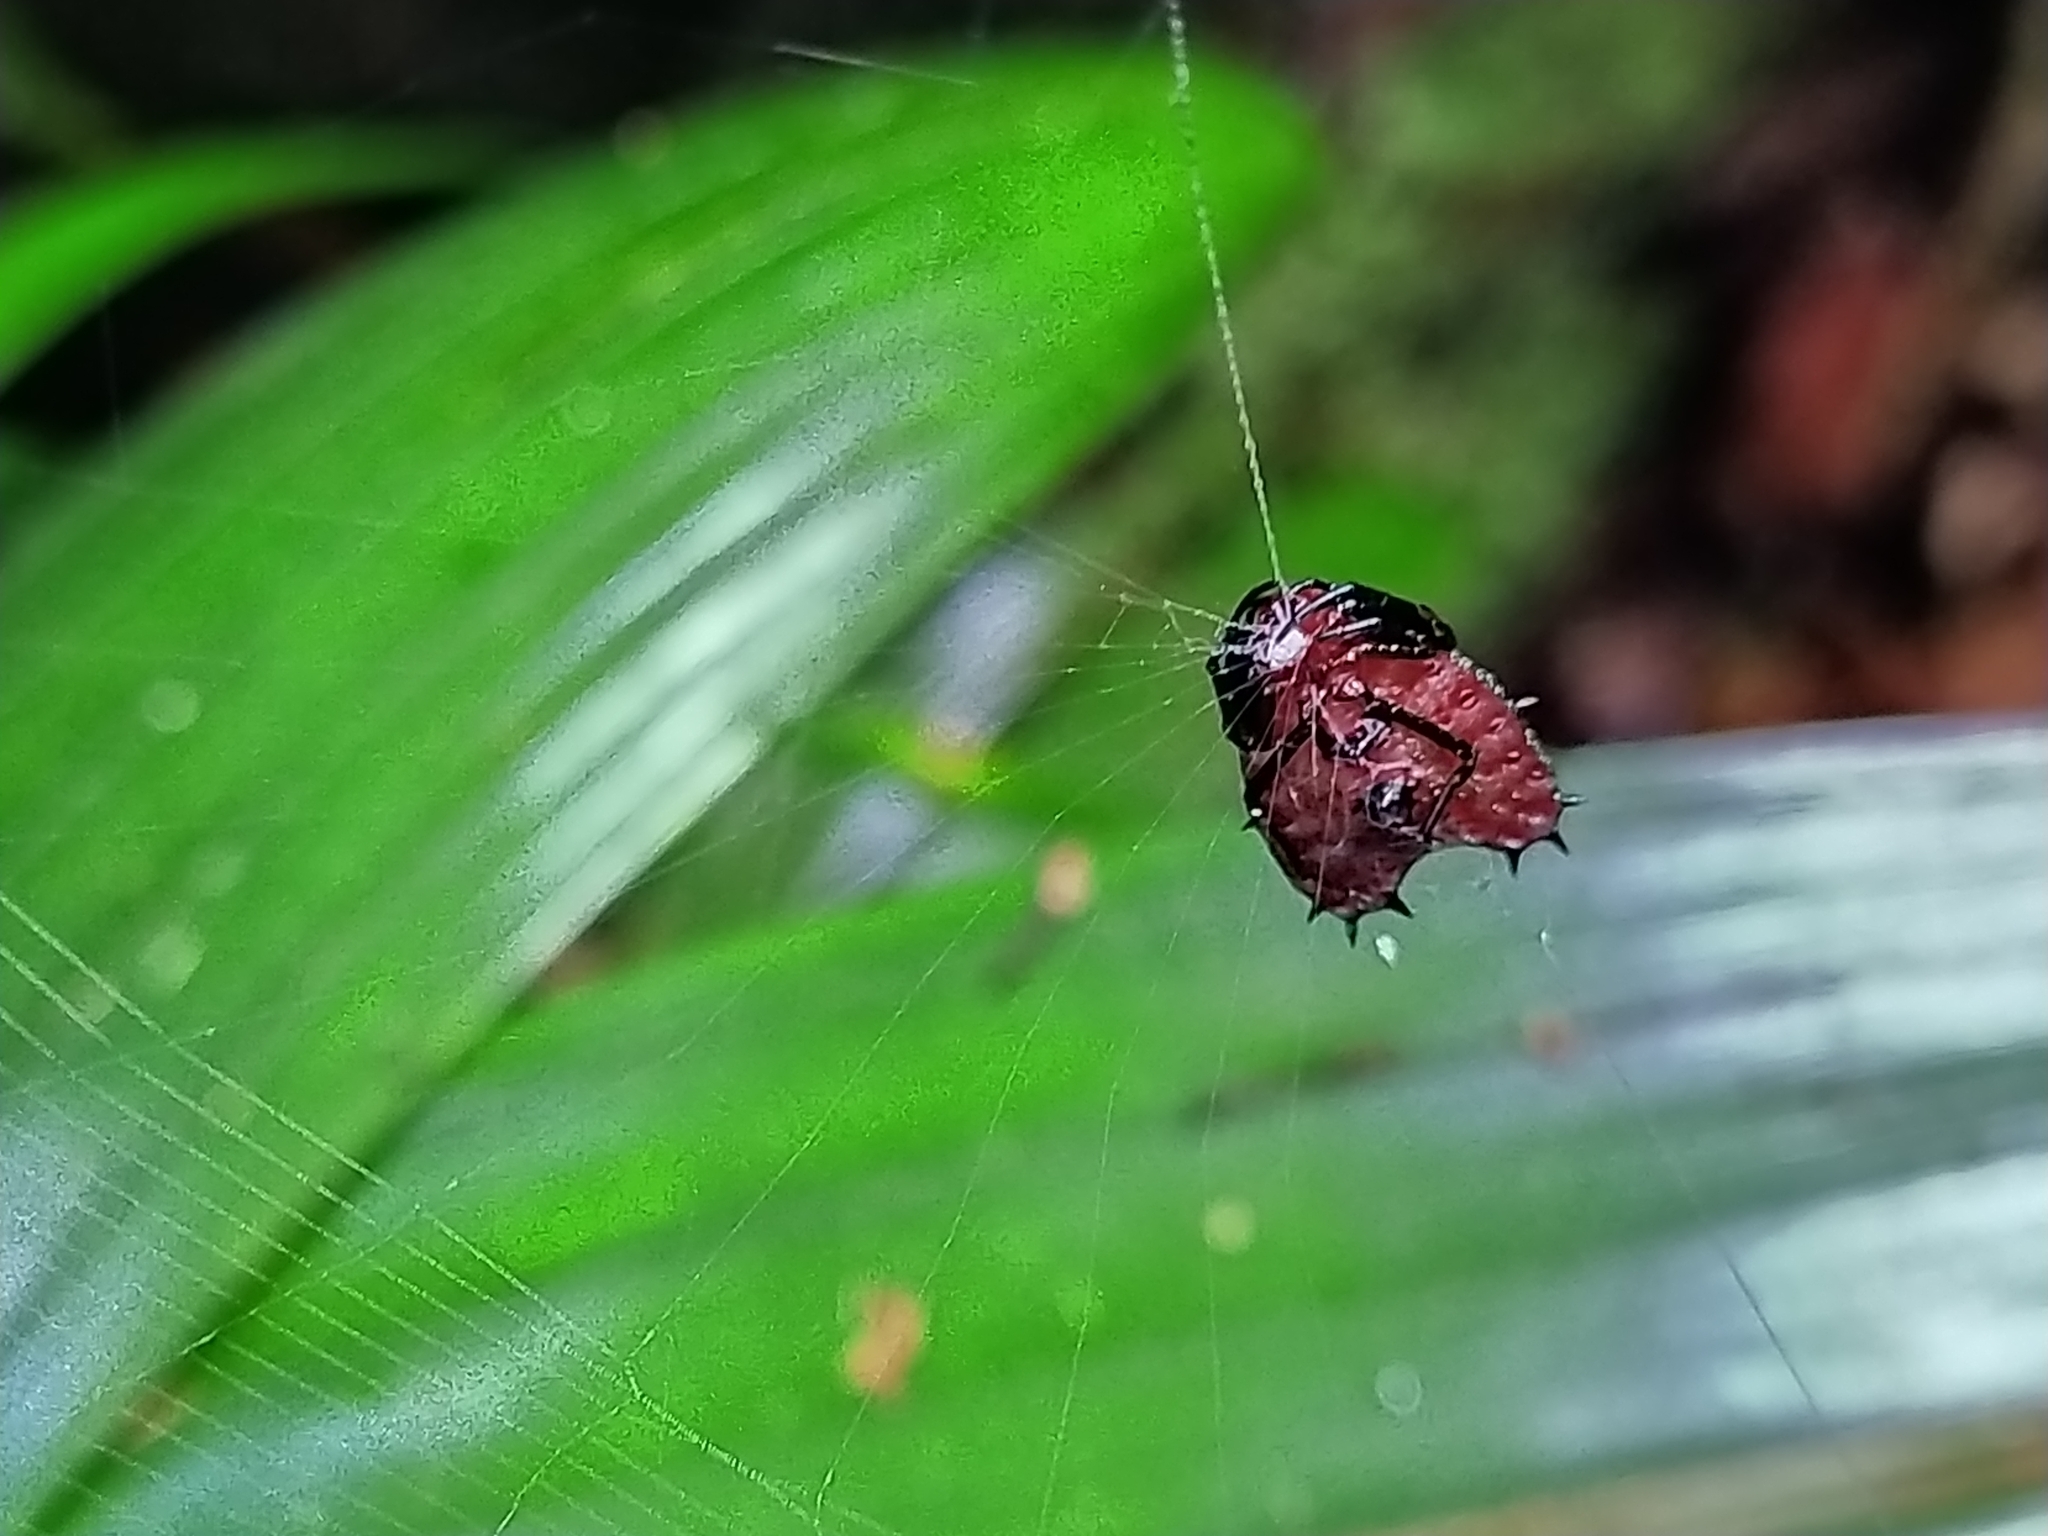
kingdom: Animalia
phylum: Arthropoda
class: Arachnida
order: Araneae
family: Araneidae
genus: Micrathena
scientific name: Micrathena clypeata
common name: Orb weavers
